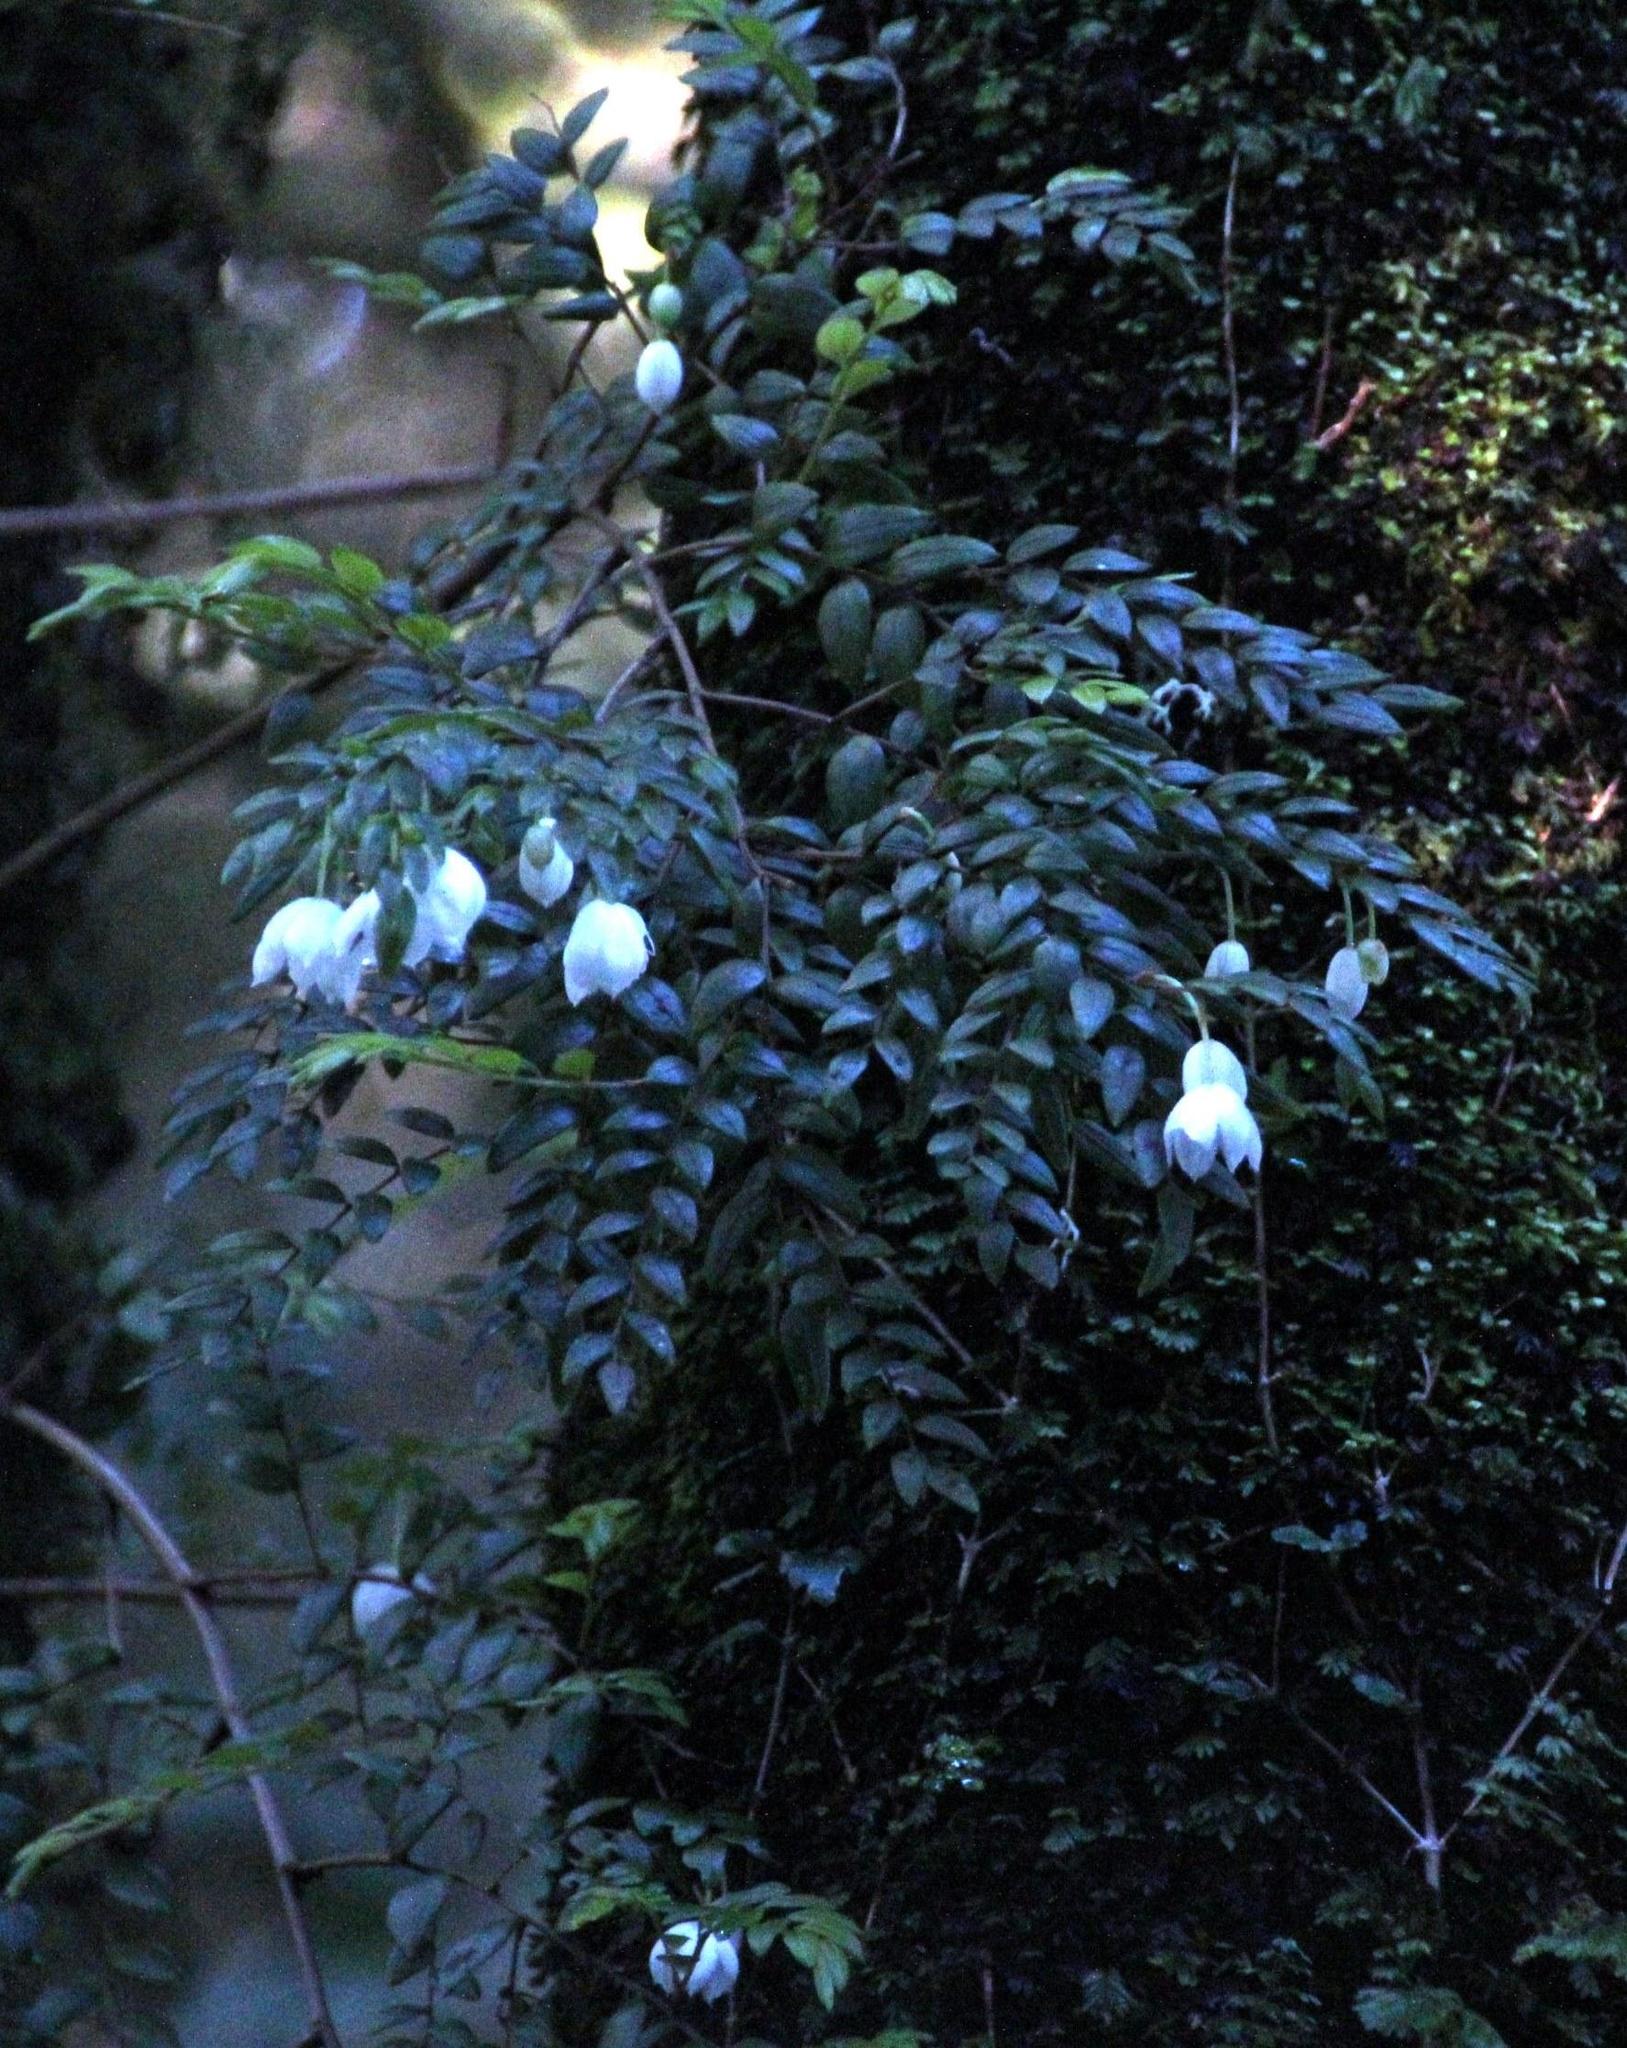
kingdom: Plantae
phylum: Tracheophyta
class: Liliopsida
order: Liliales
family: Alstroemeriaceae
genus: Luzuriaga
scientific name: Luzuriaga polyphylla
